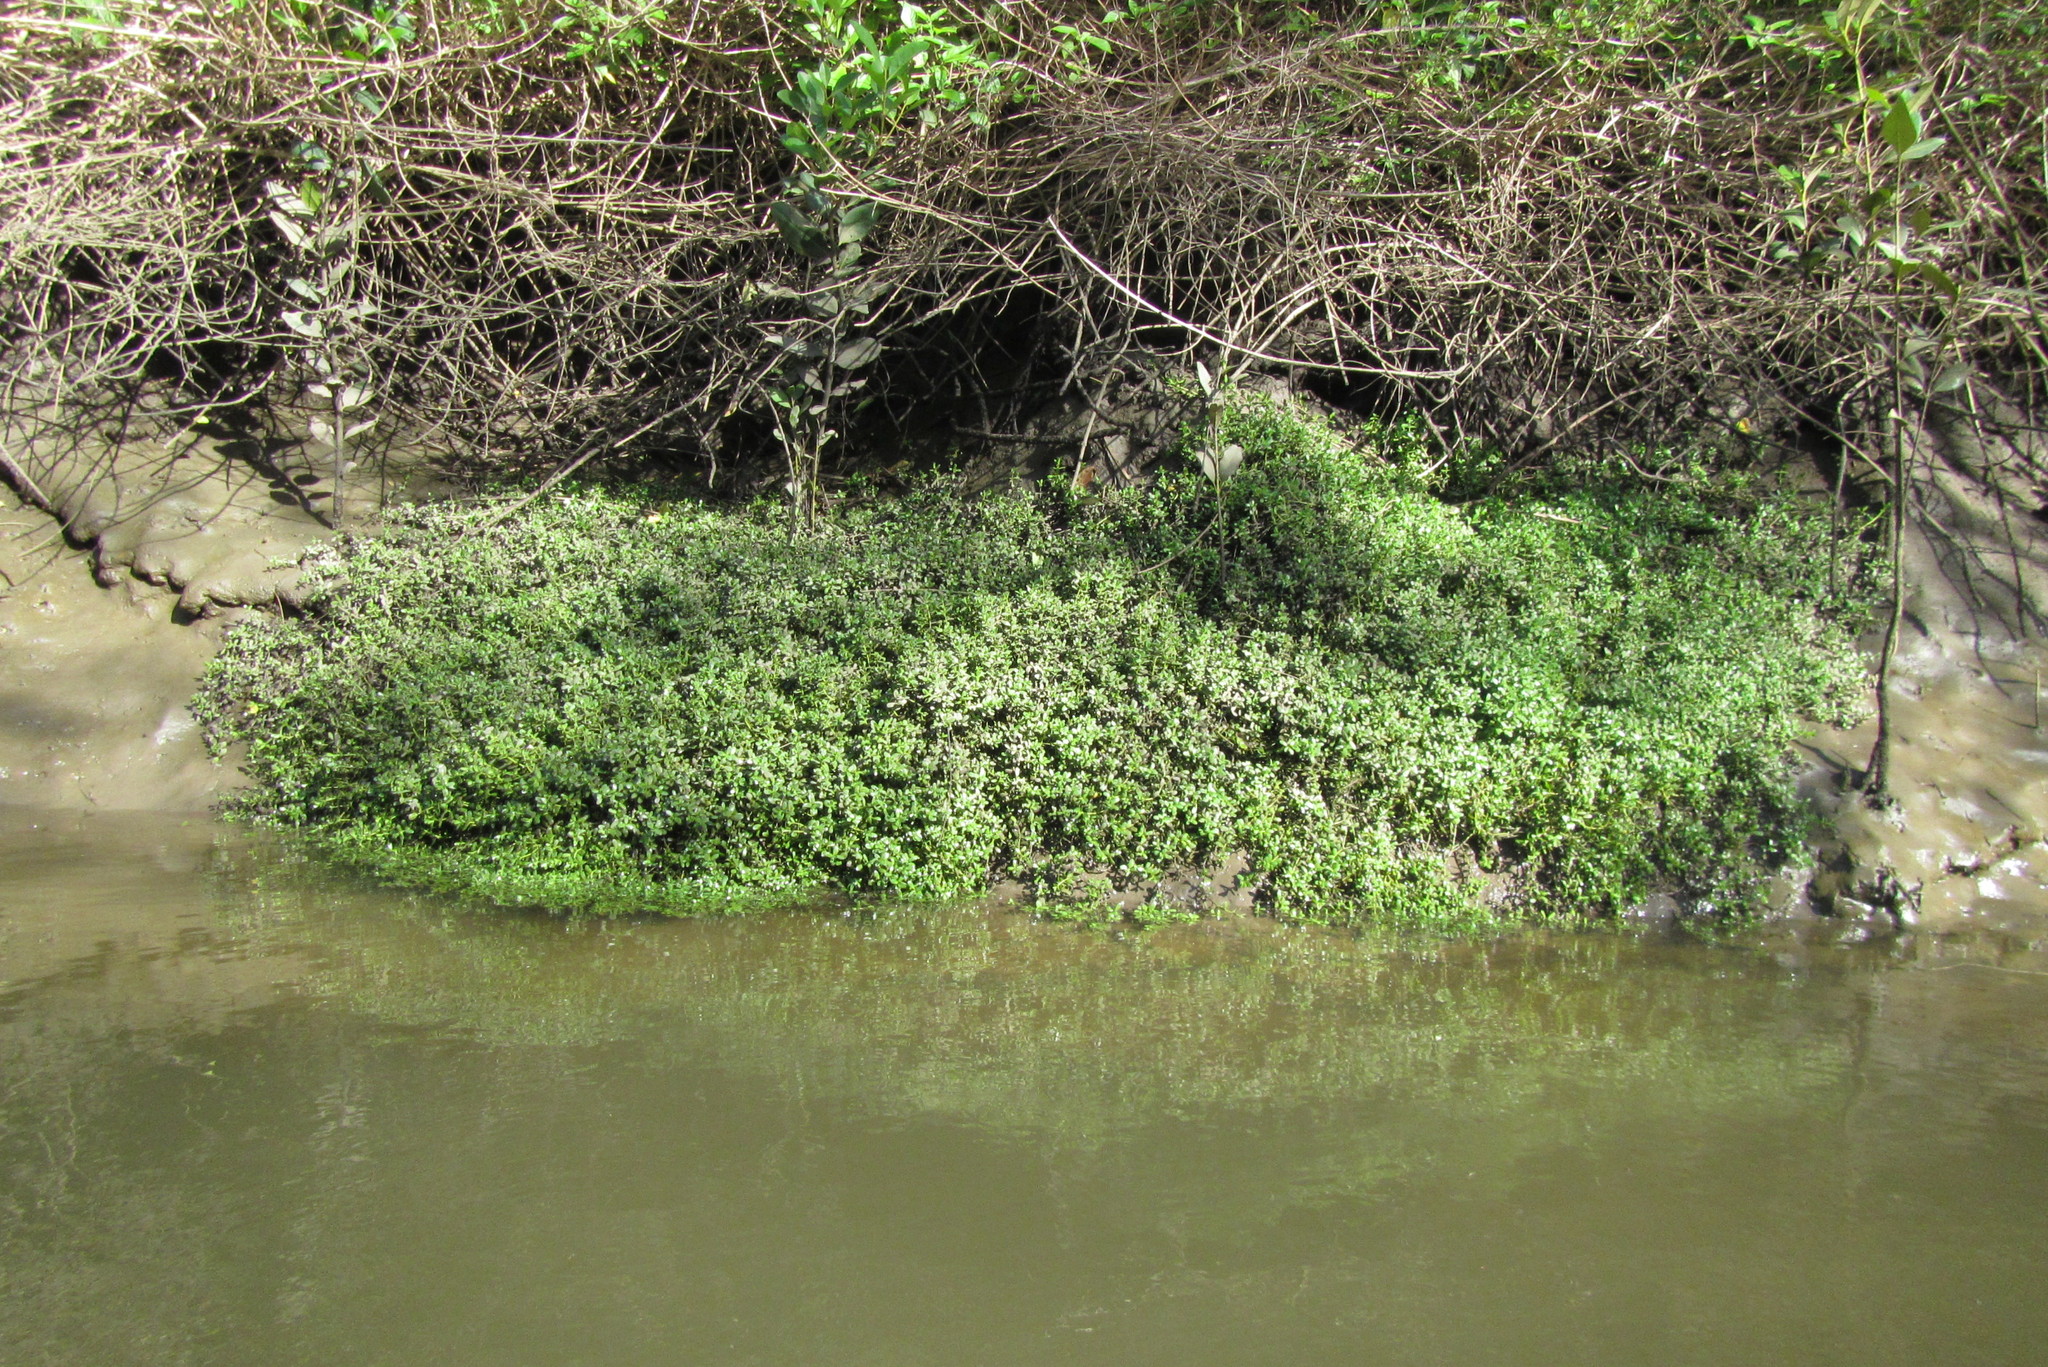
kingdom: Plantae
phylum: Tracheophyta
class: Magnoliopsida
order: Lamiales
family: Plantaginaceae
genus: Bacopa
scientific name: Bacopa monnieri
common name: Indian-pennywort
